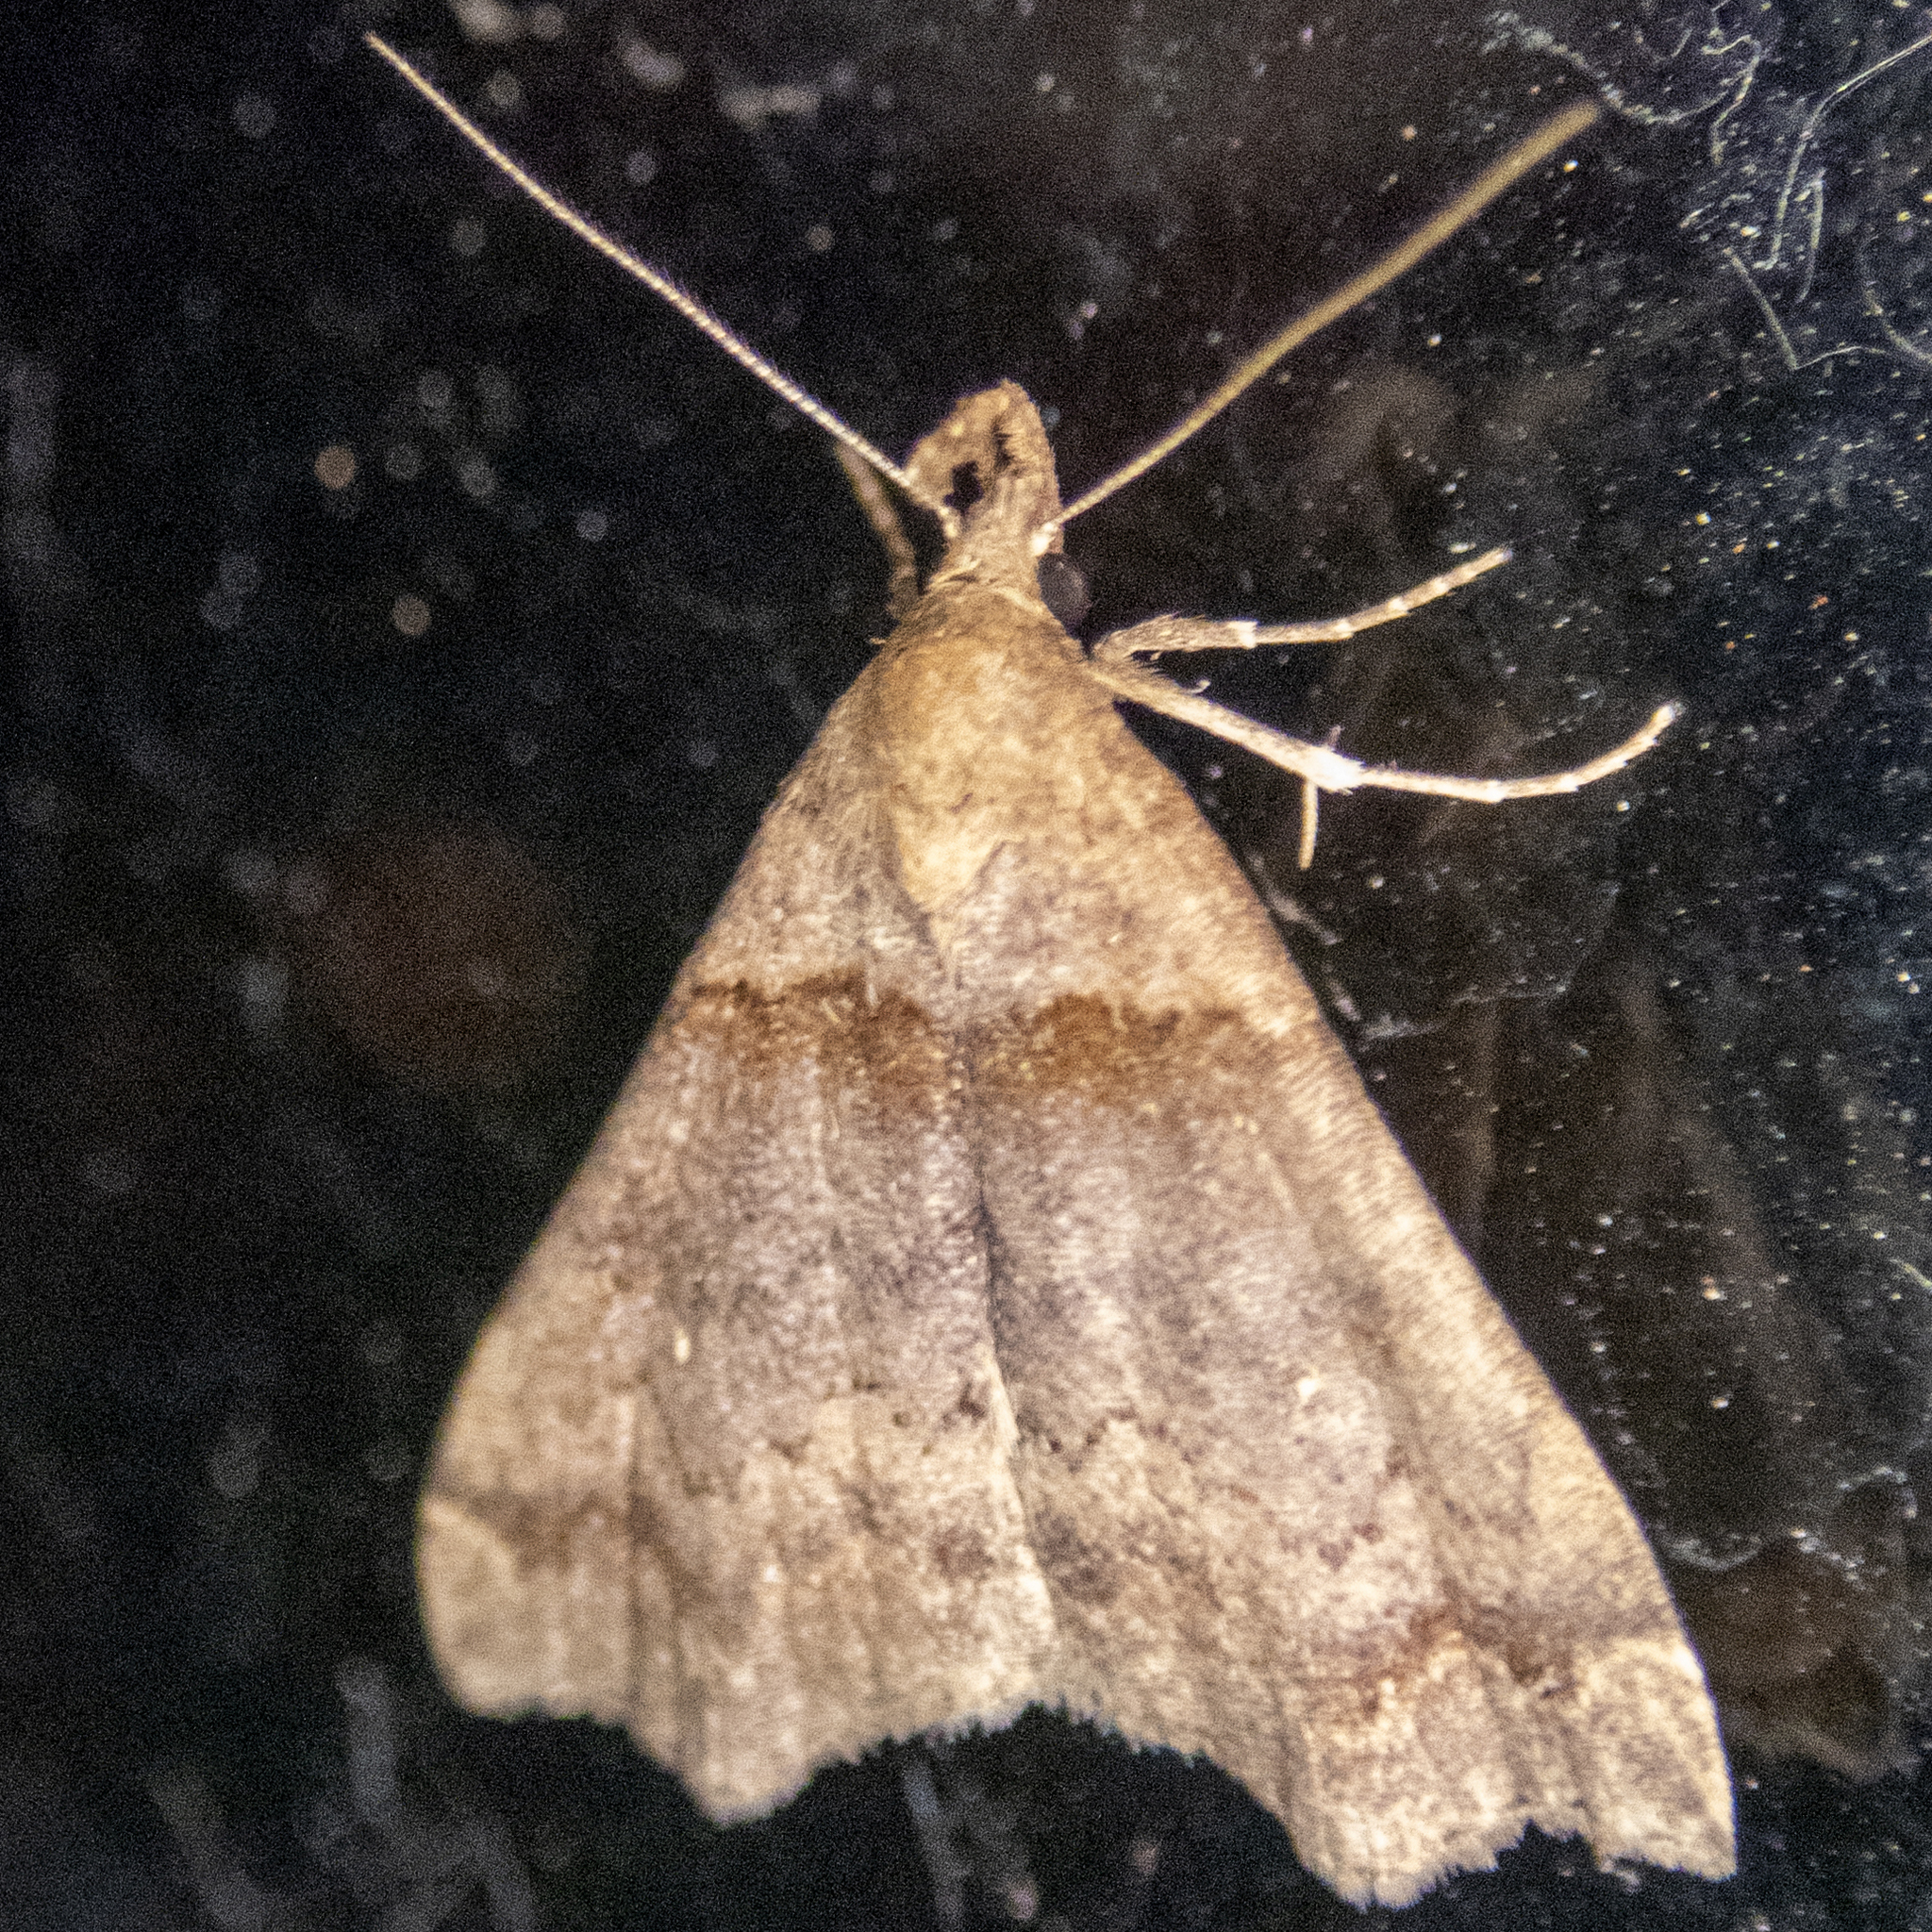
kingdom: Animalia
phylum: Arthropoda
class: Insecta
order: Lepidoptera
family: Erebidae
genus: Lascoria
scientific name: Lascoria ambigualis
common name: Ambiguous moth
